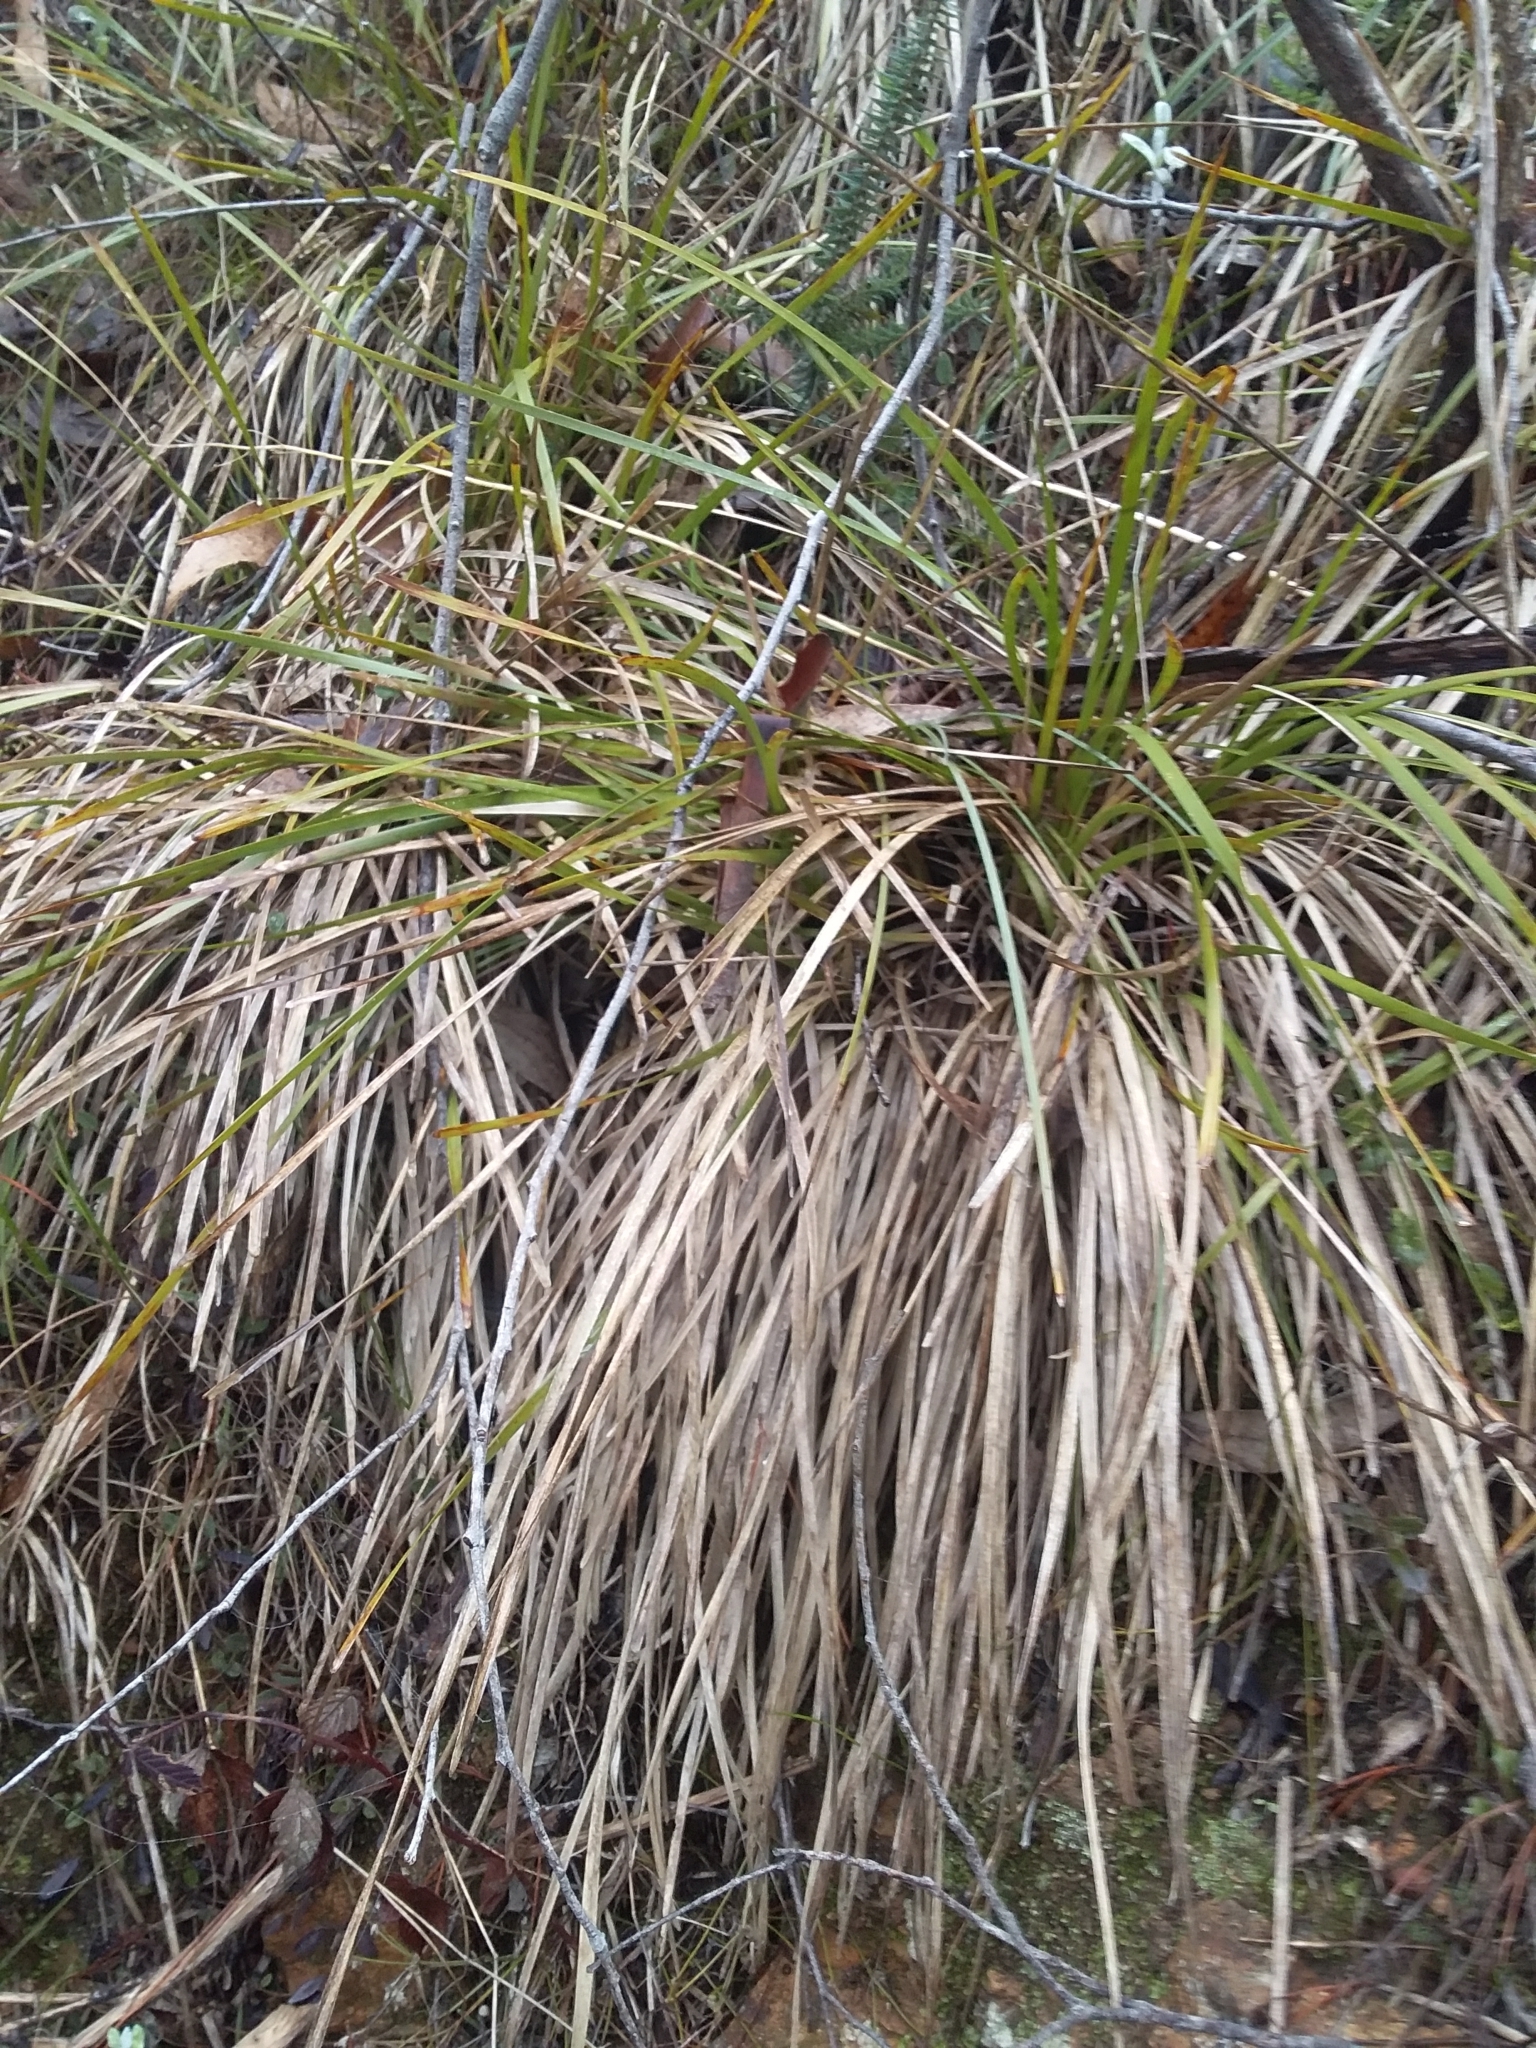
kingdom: Plantae
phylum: Tracheophyta
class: Liliopsida
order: Asparagales
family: Asparagaceae
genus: Lomandra
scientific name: Lomandra densiflora
